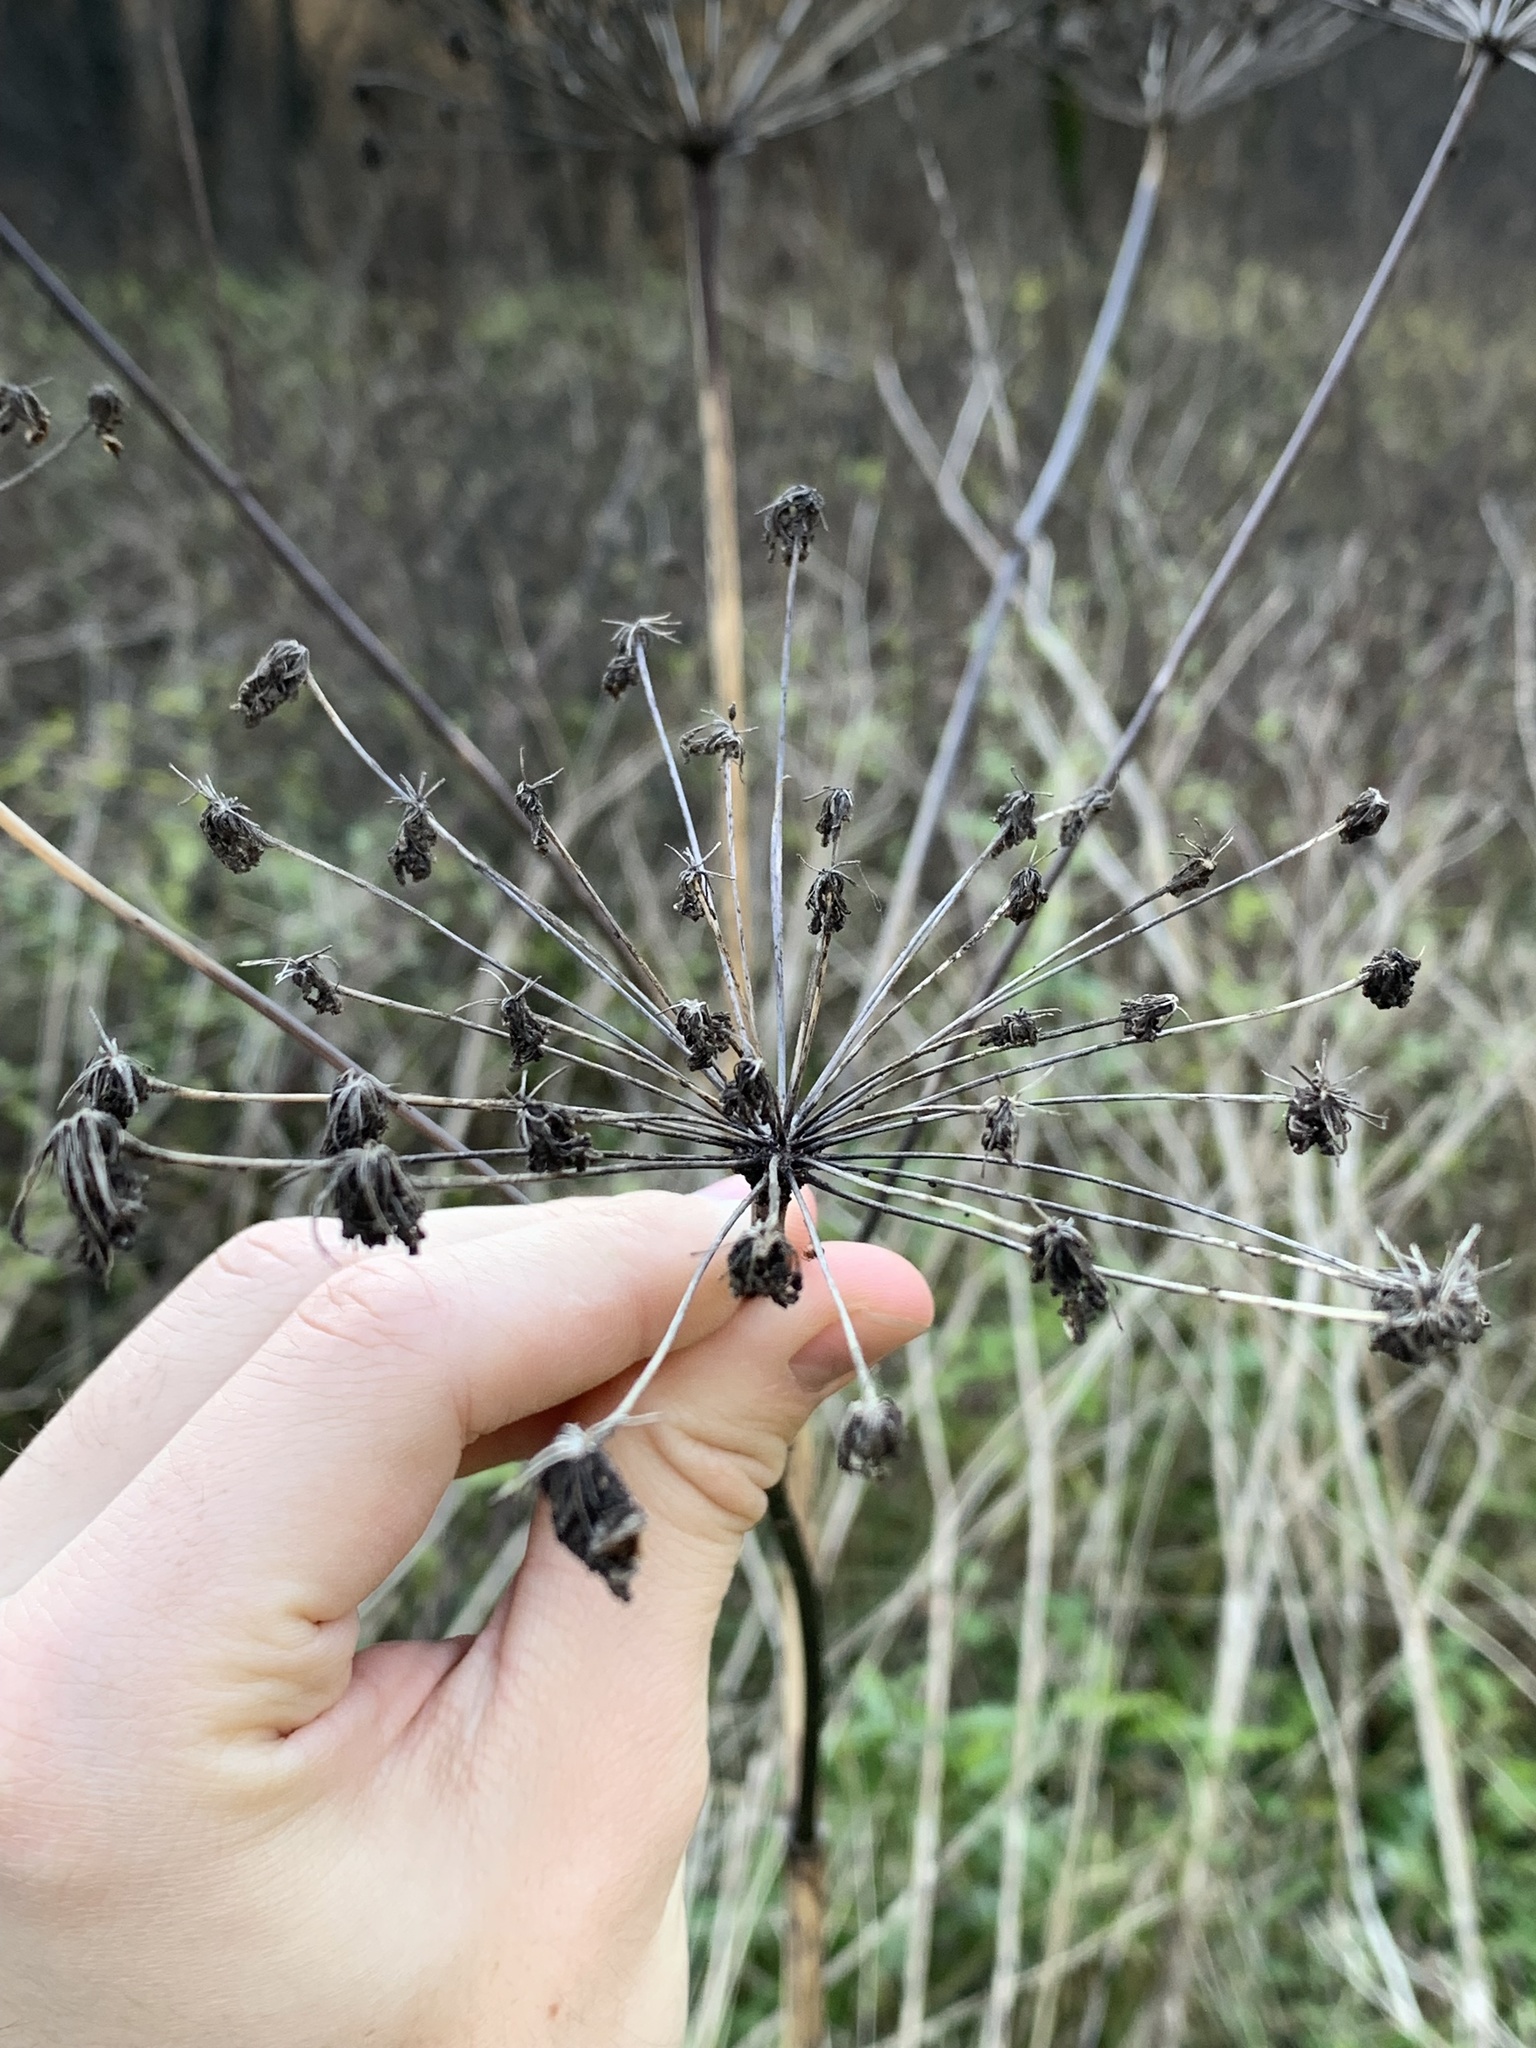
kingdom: Plantae
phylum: Tracheophyta
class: Magnoliopsida
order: Apiales
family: Apiaceae
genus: Heracleum
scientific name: Heracleum sosnowskyi
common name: Sosnowsky's hogweed
